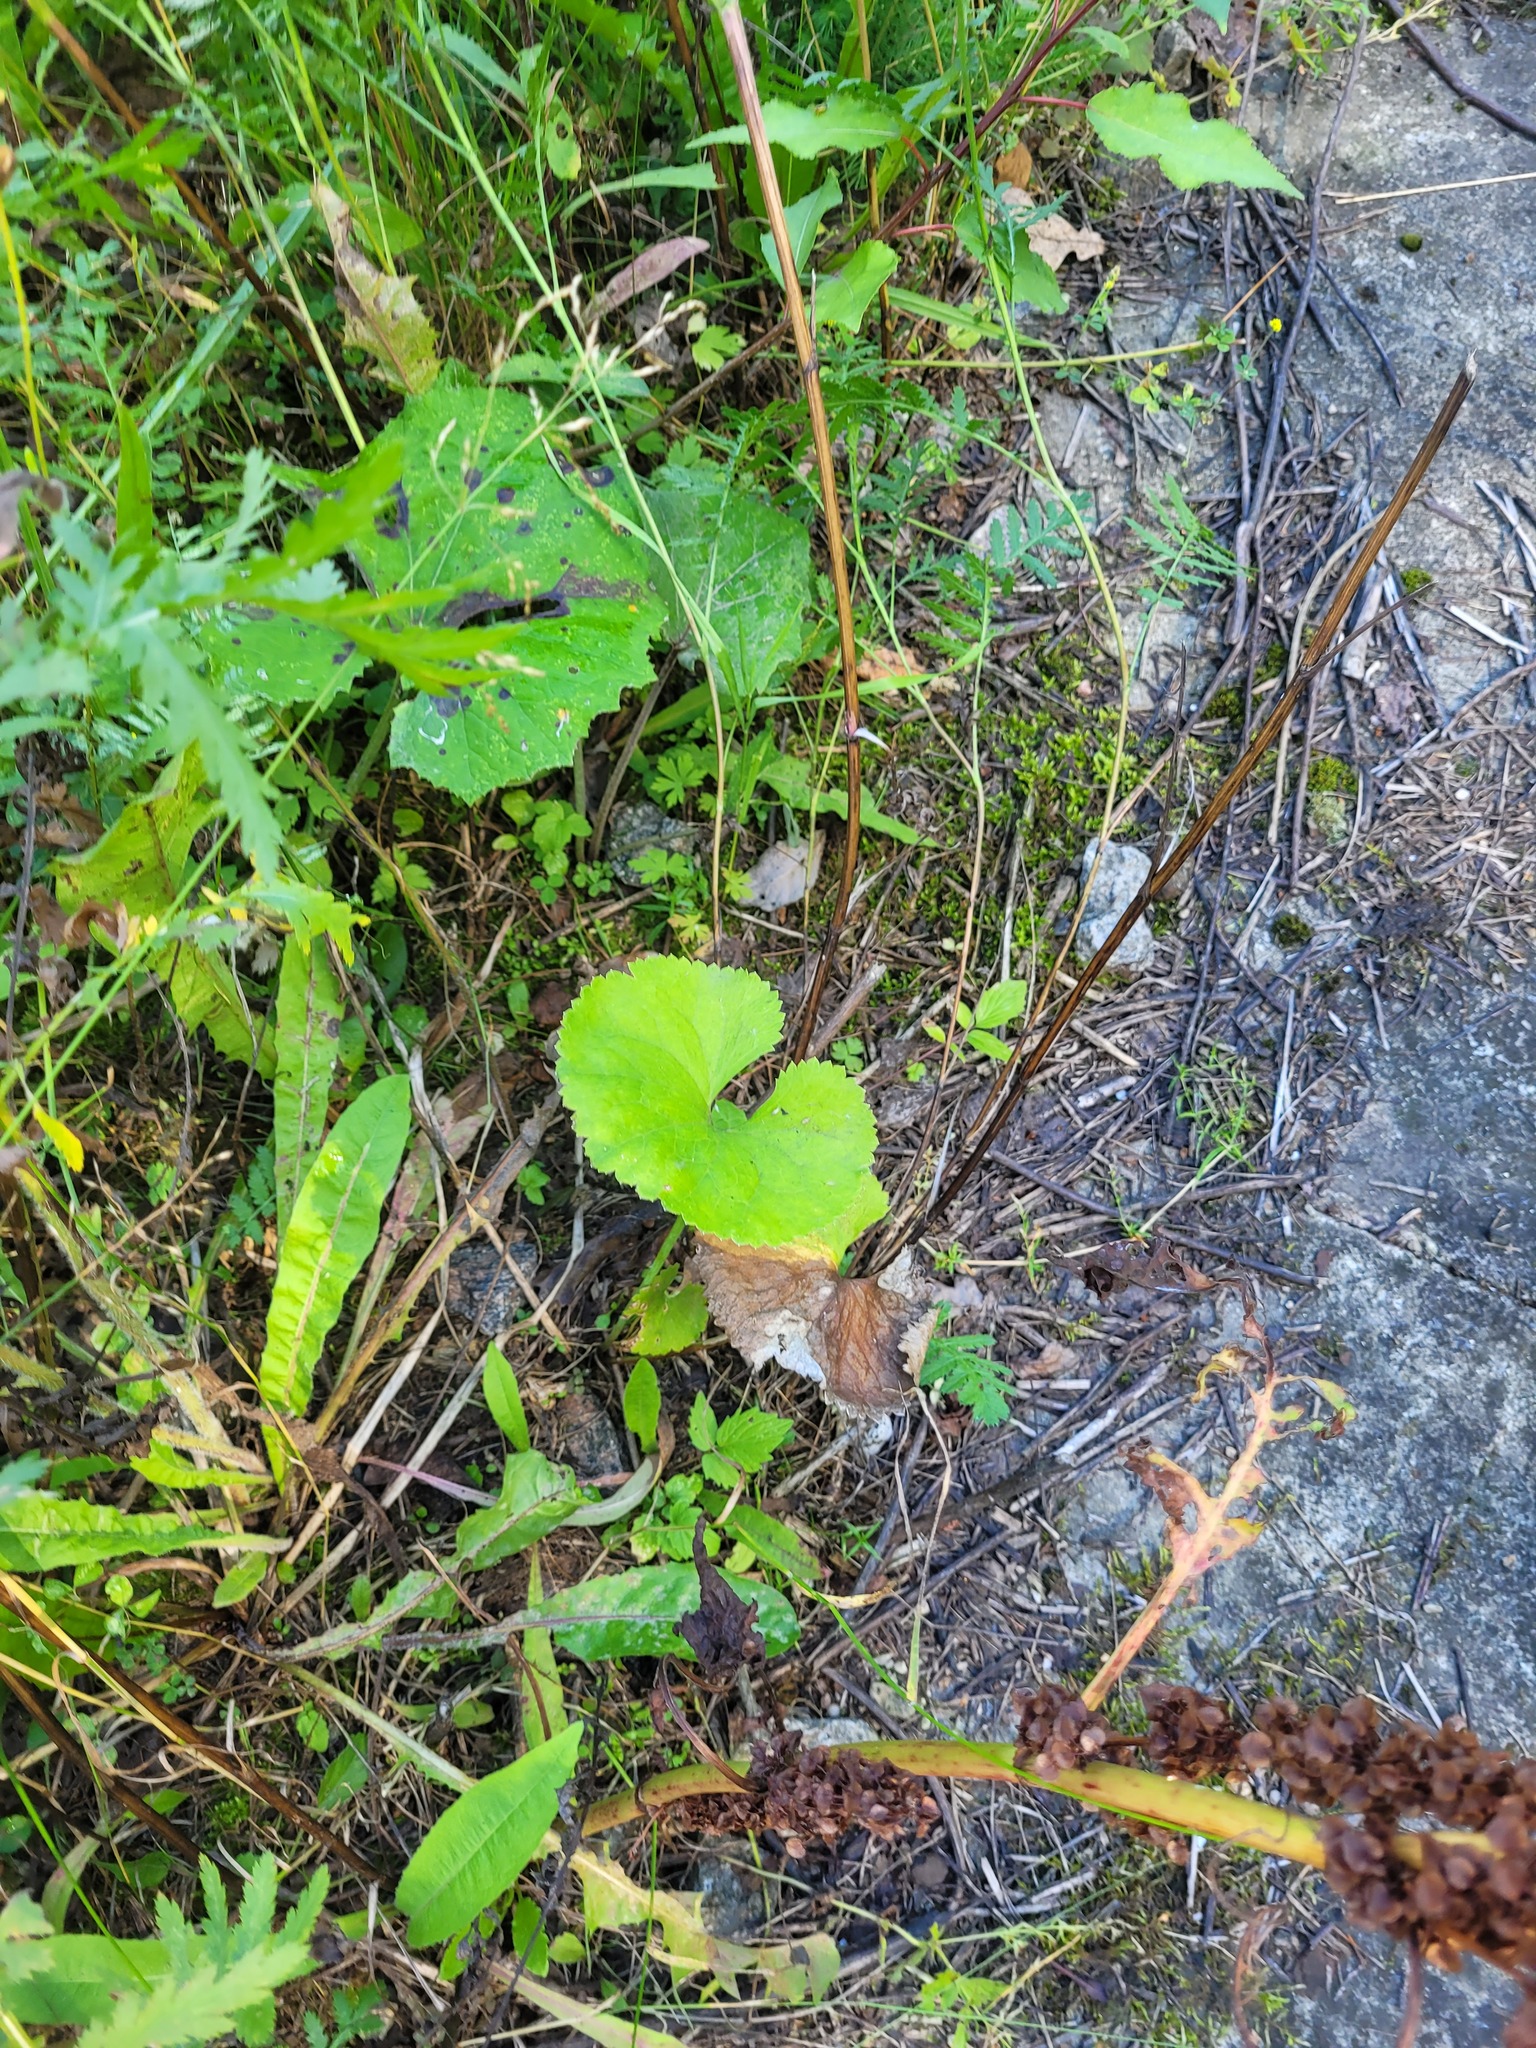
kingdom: Plantae
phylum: Tracheophyta
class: Magnoliopsida
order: Ranunculales
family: Ranunculaceae
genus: Ranunculus
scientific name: Ranunculus cassubicus
